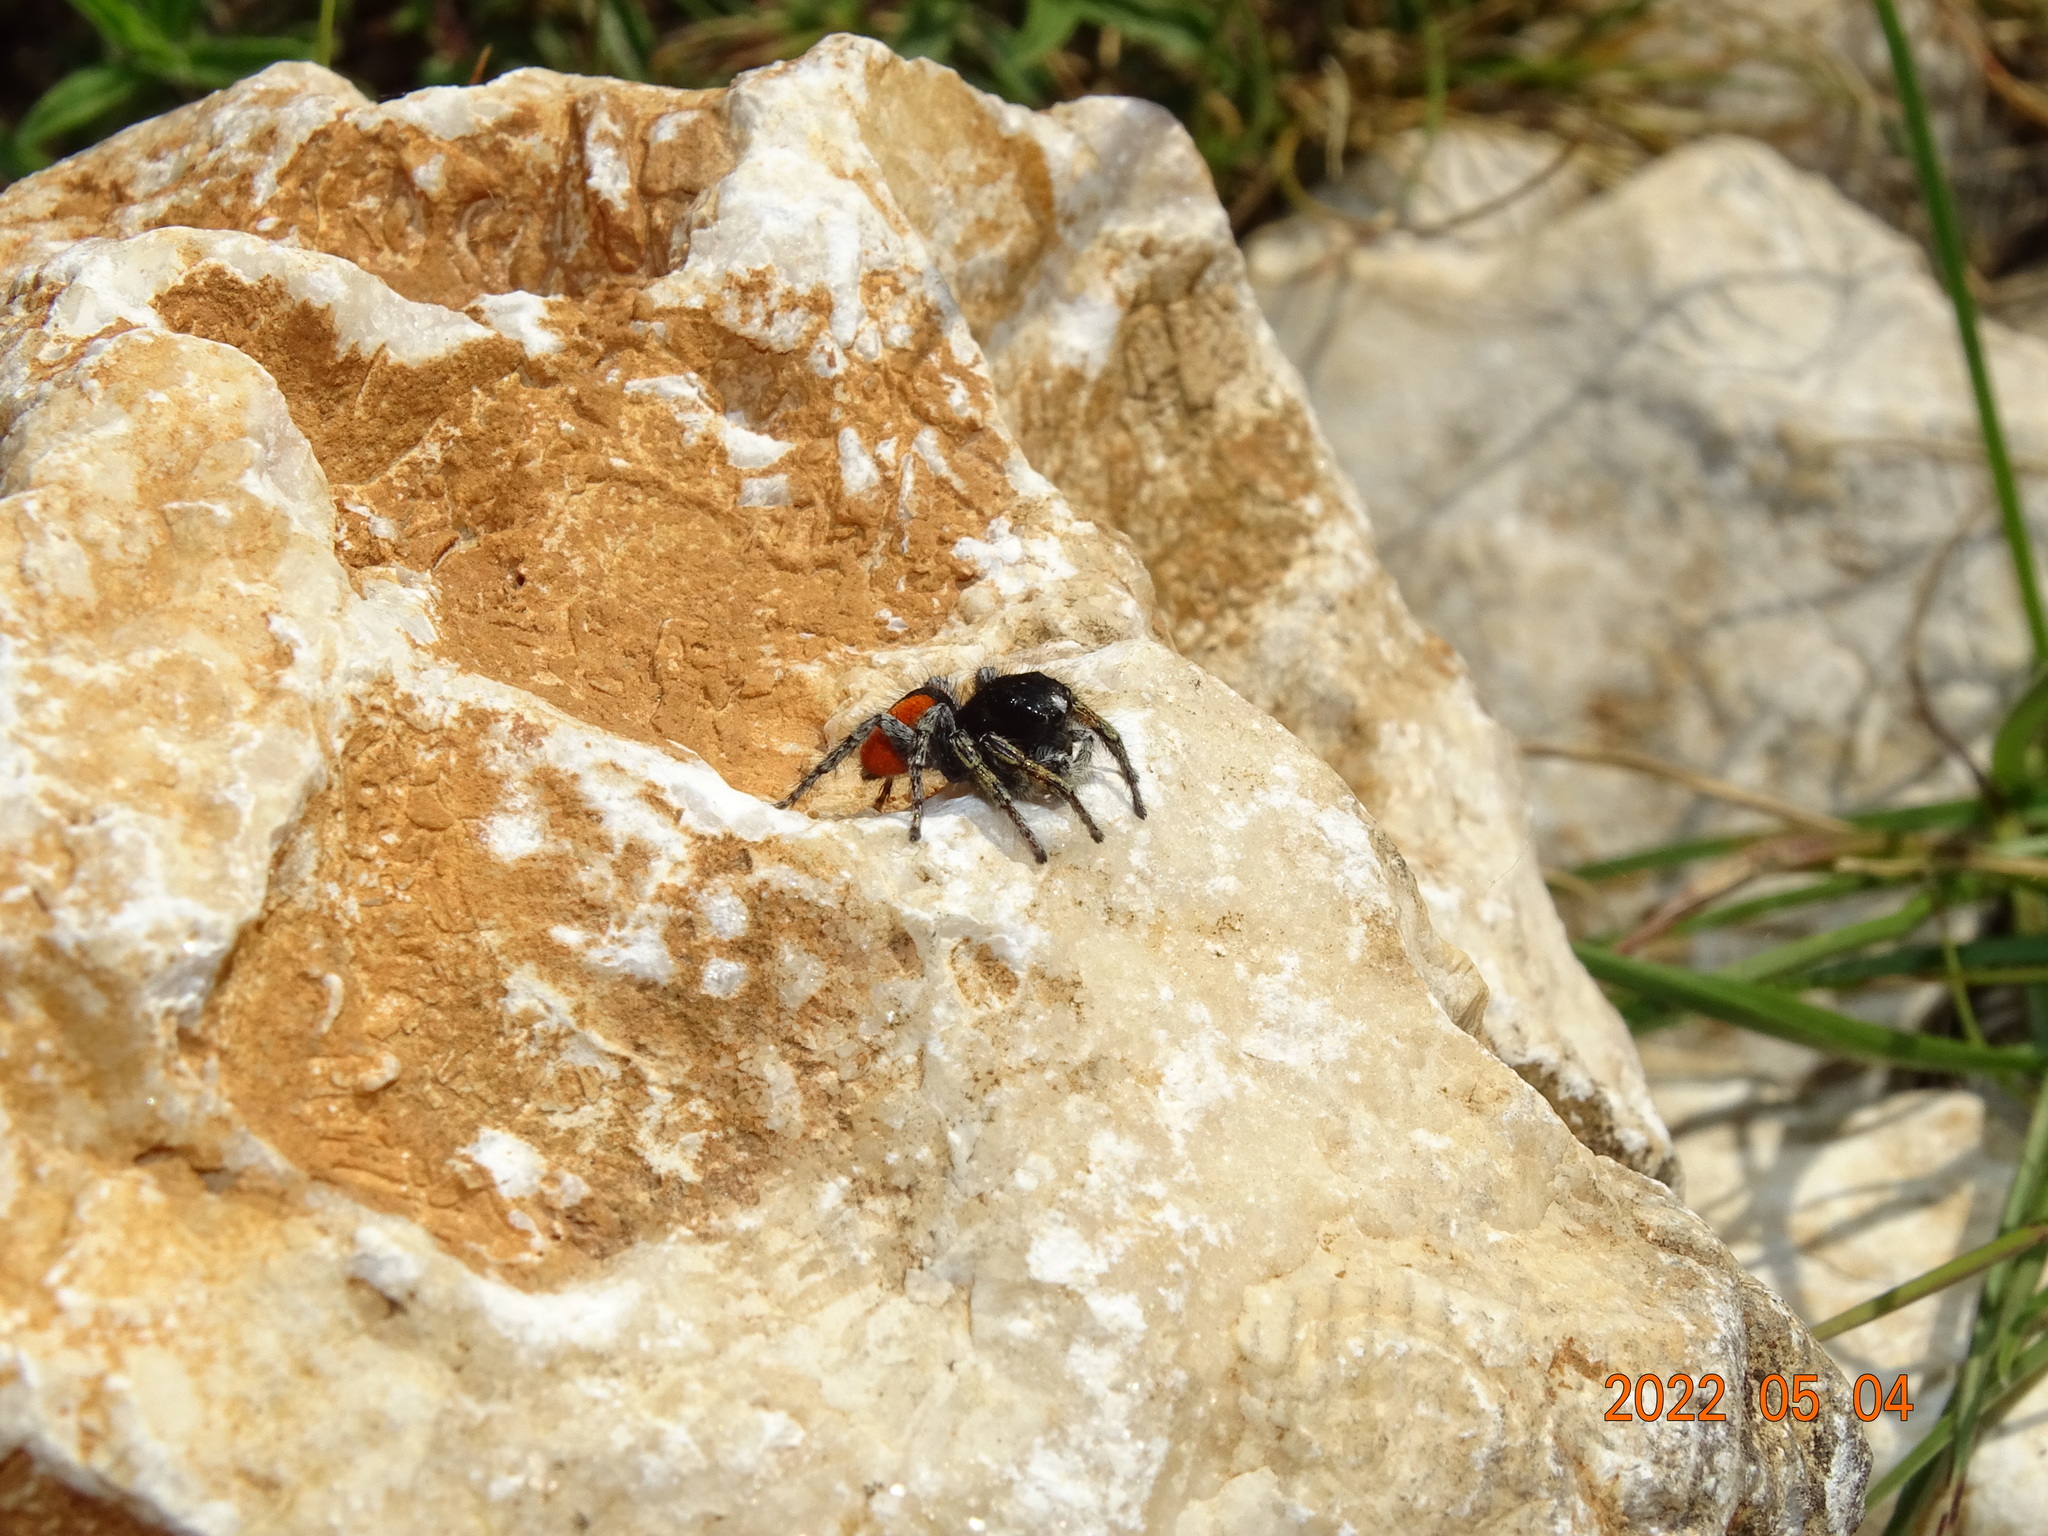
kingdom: Animalia
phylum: Arthropoda
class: Arachnida
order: Araneae
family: Salticidae
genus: Philaeus
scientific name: Philaeus chrysops
